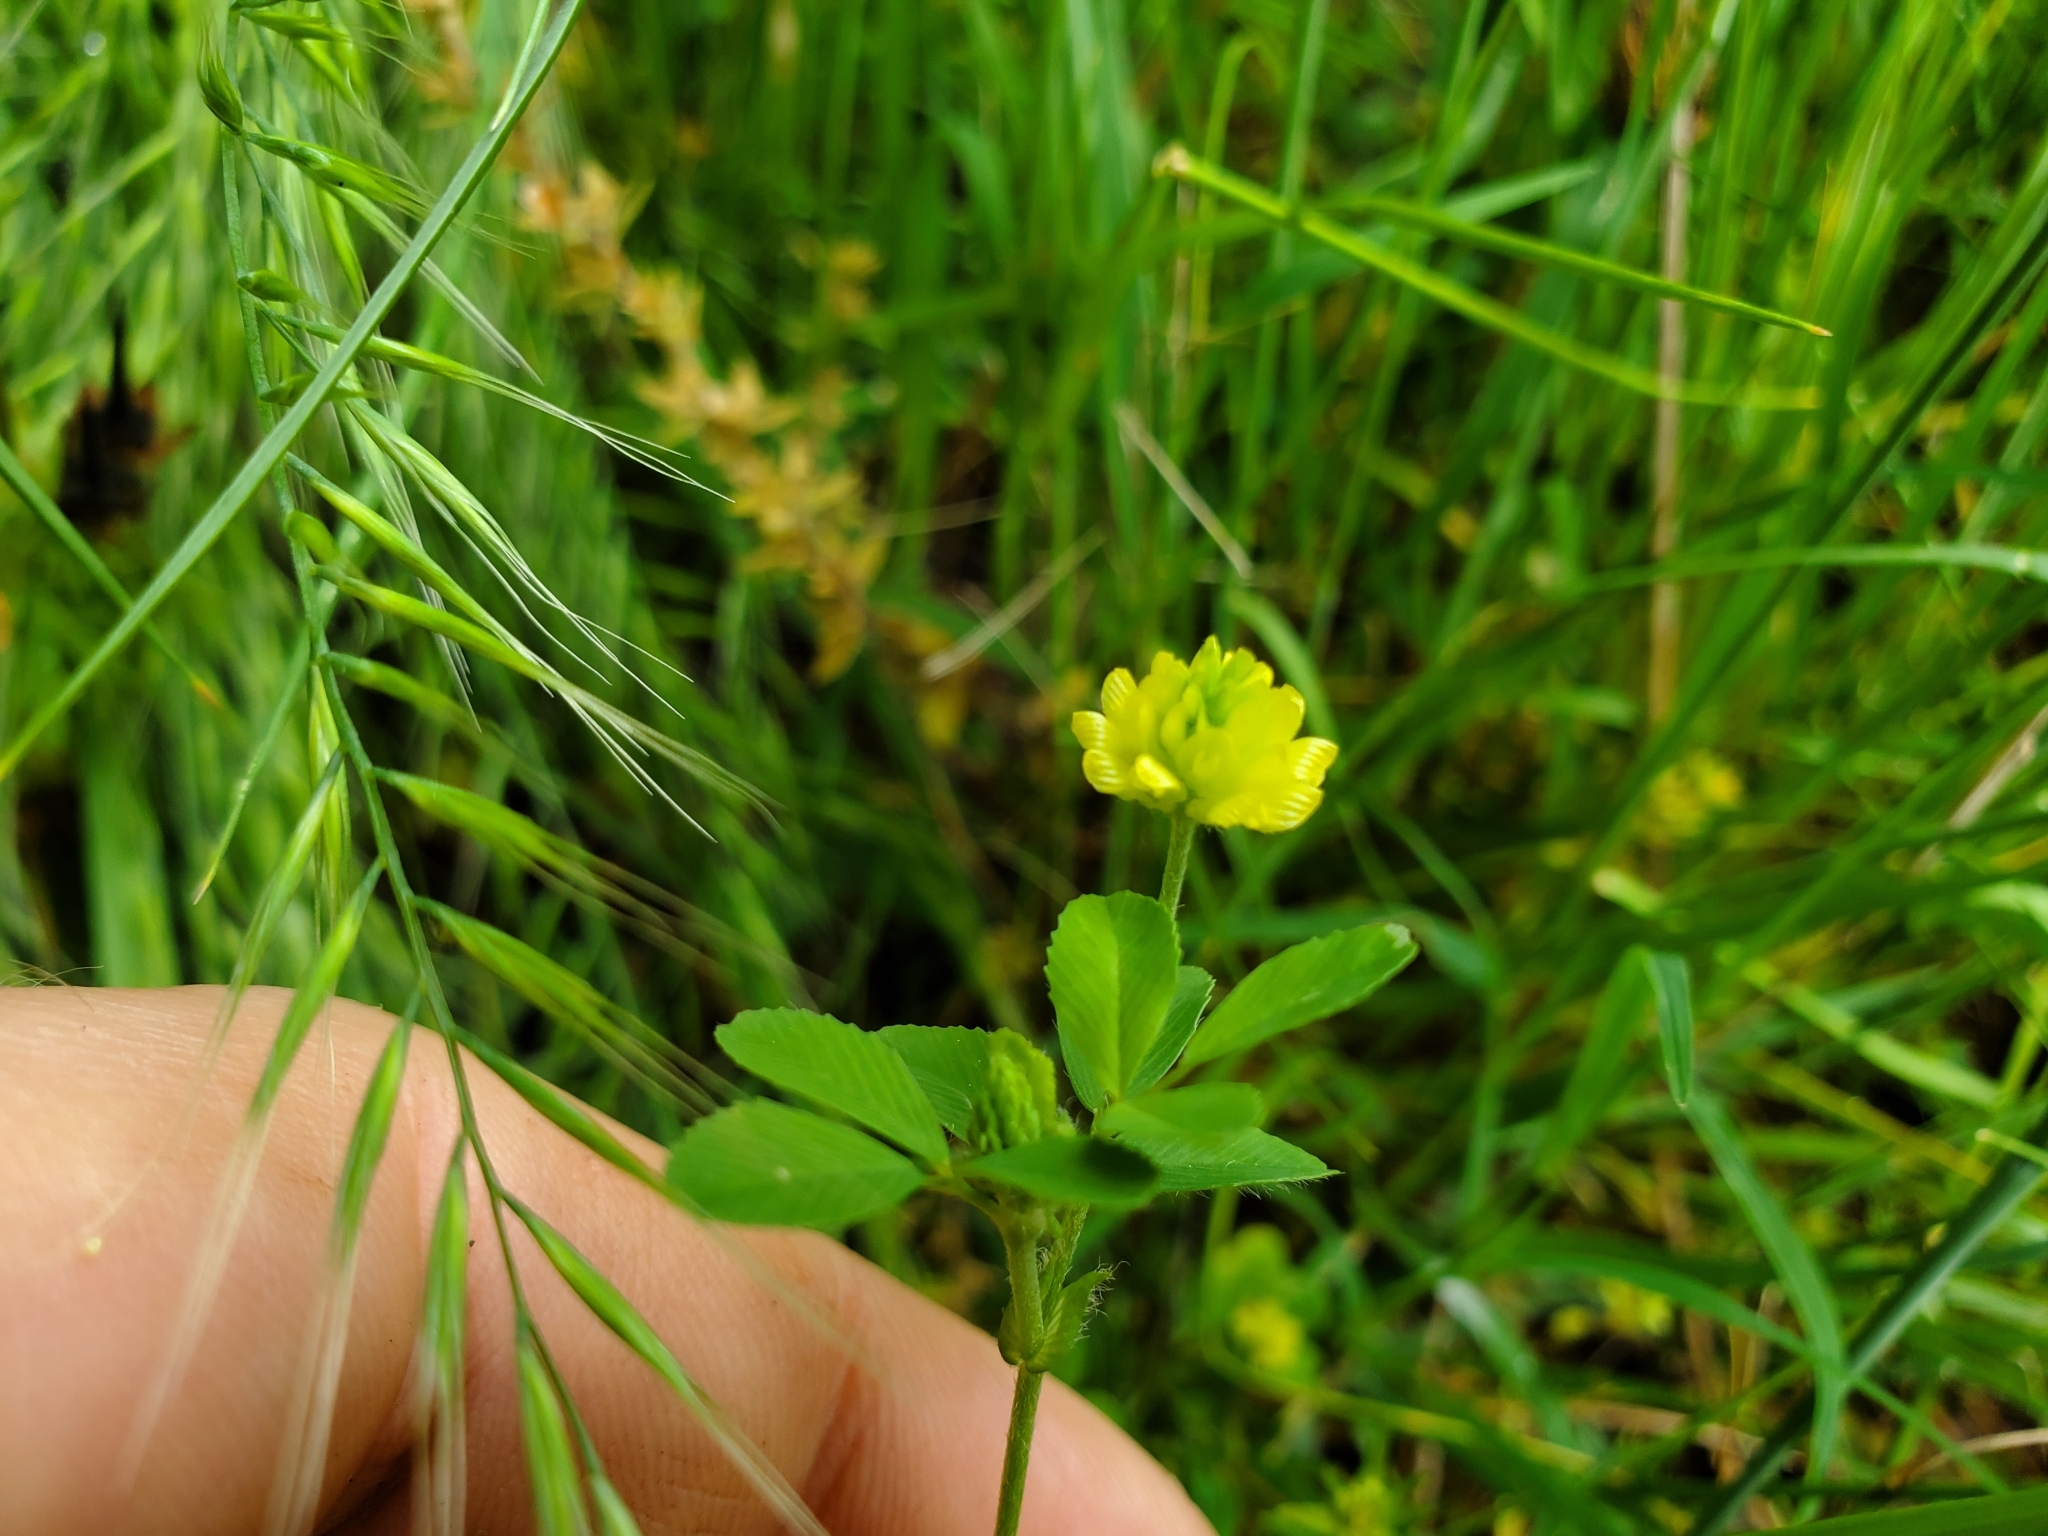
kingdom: Plantae
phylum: Tracheophyta
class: Magnoliopsida
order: Fabales
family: Fabaceae
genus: Trifolium
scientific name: Trifolium campestre
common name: Field clover
